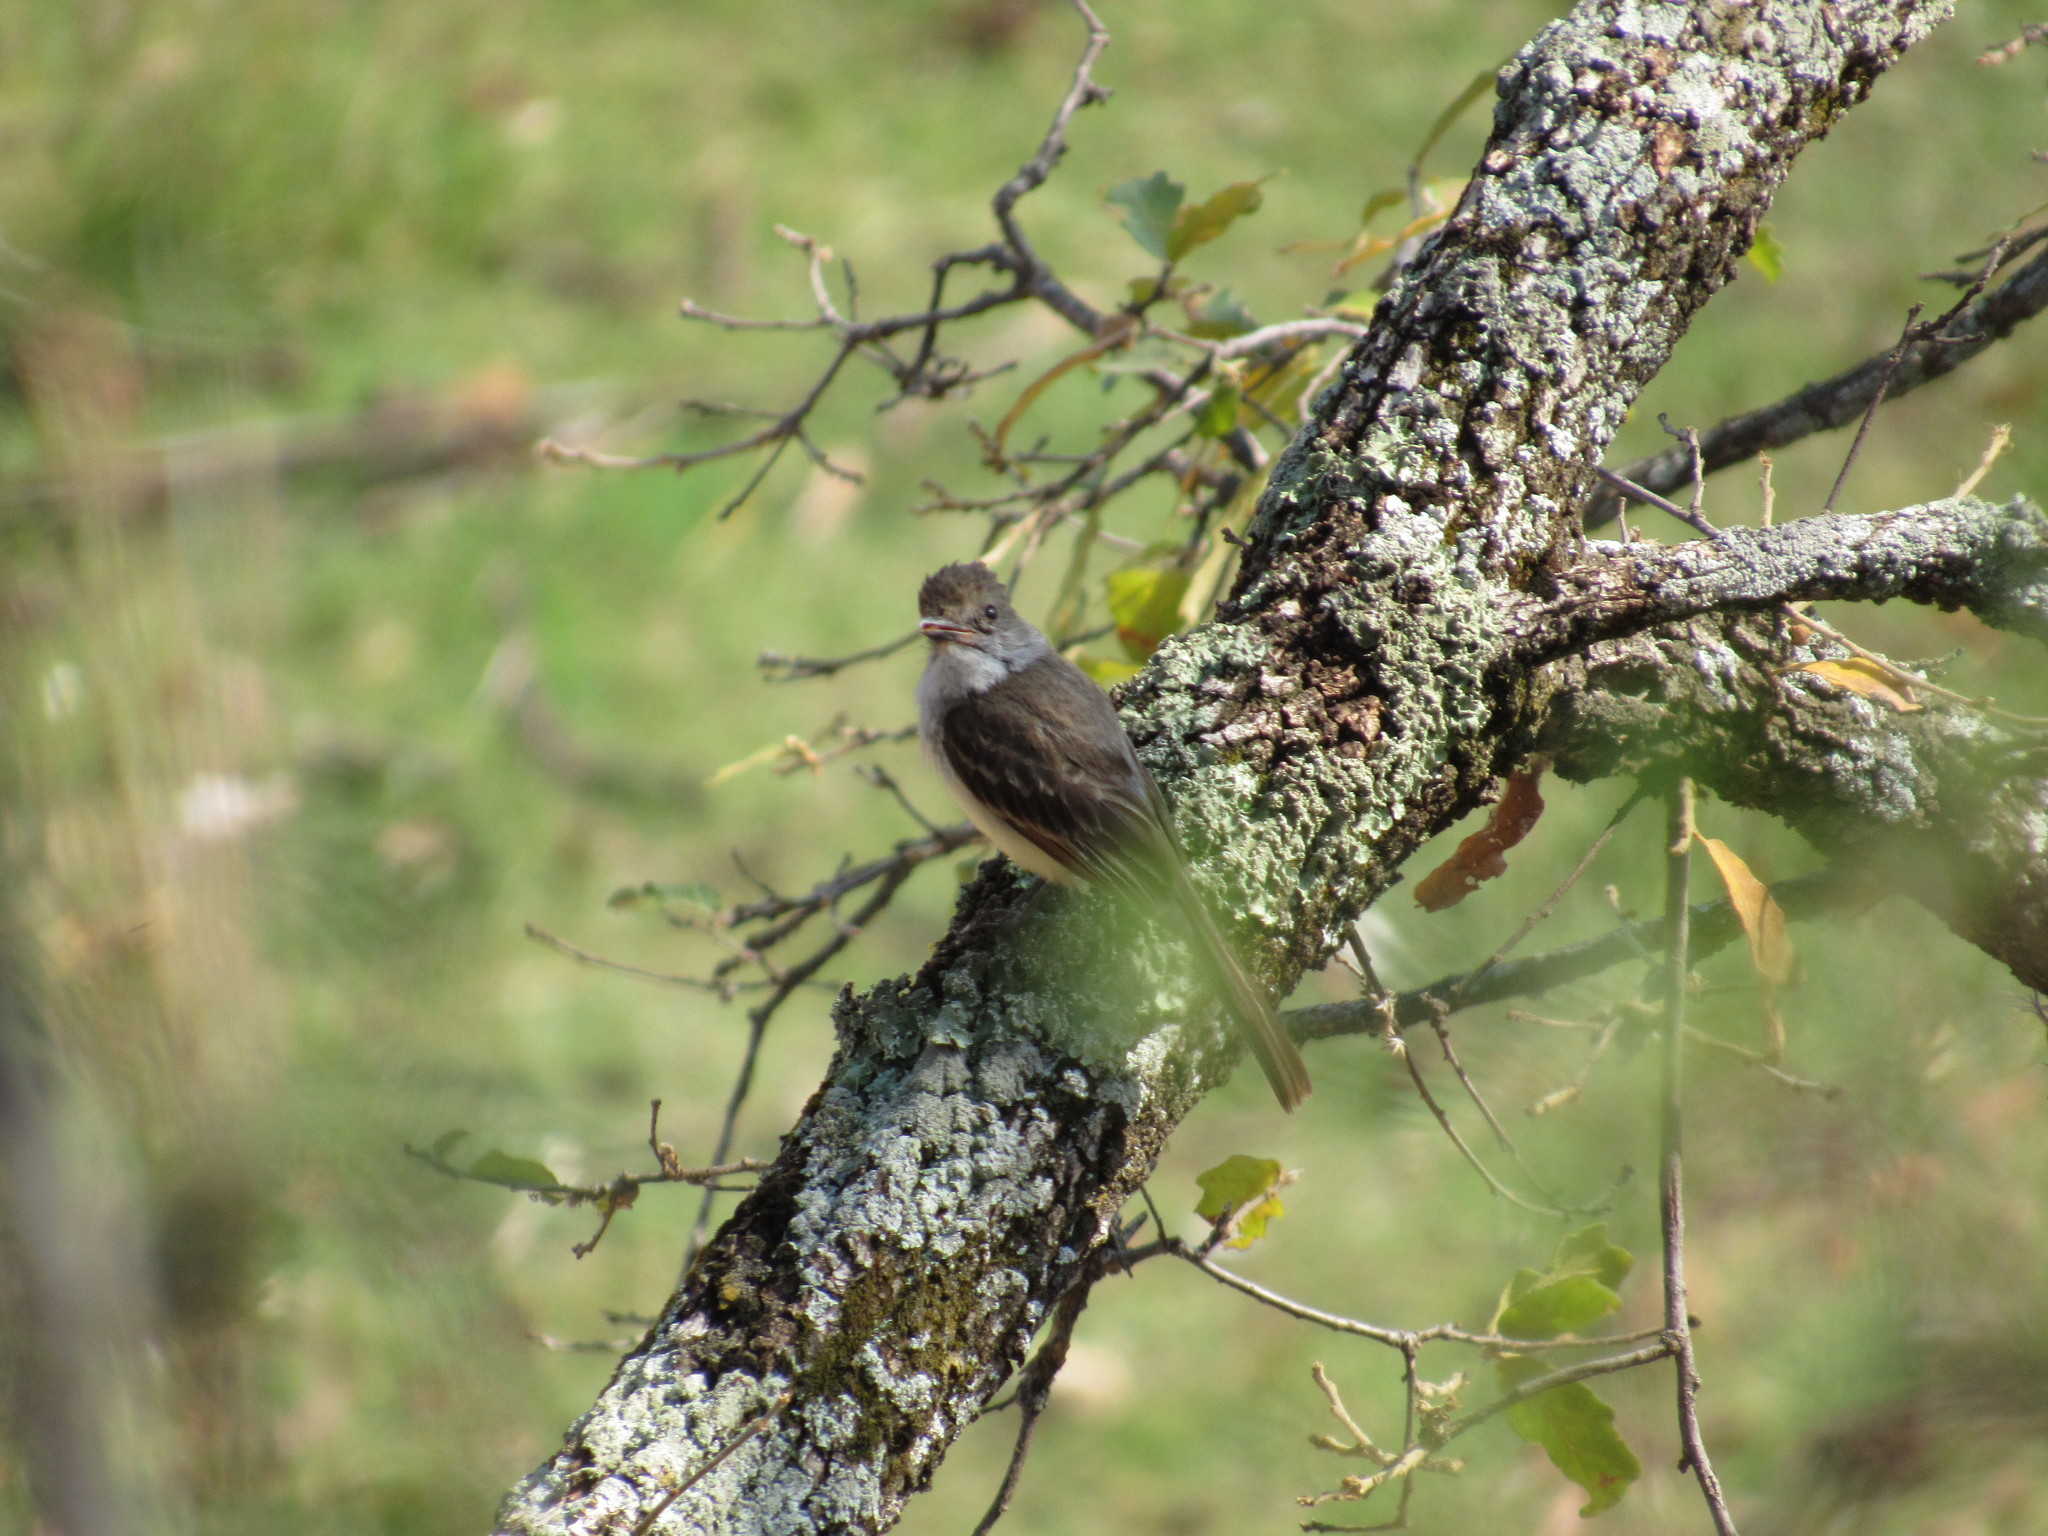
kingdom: Animalia
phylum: Chordata
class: Aves
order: Passeriformes
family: Tyrannidae
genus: Myiarchus
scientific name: Myiarchus cinerascens
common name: Ash-throated flycatcher
